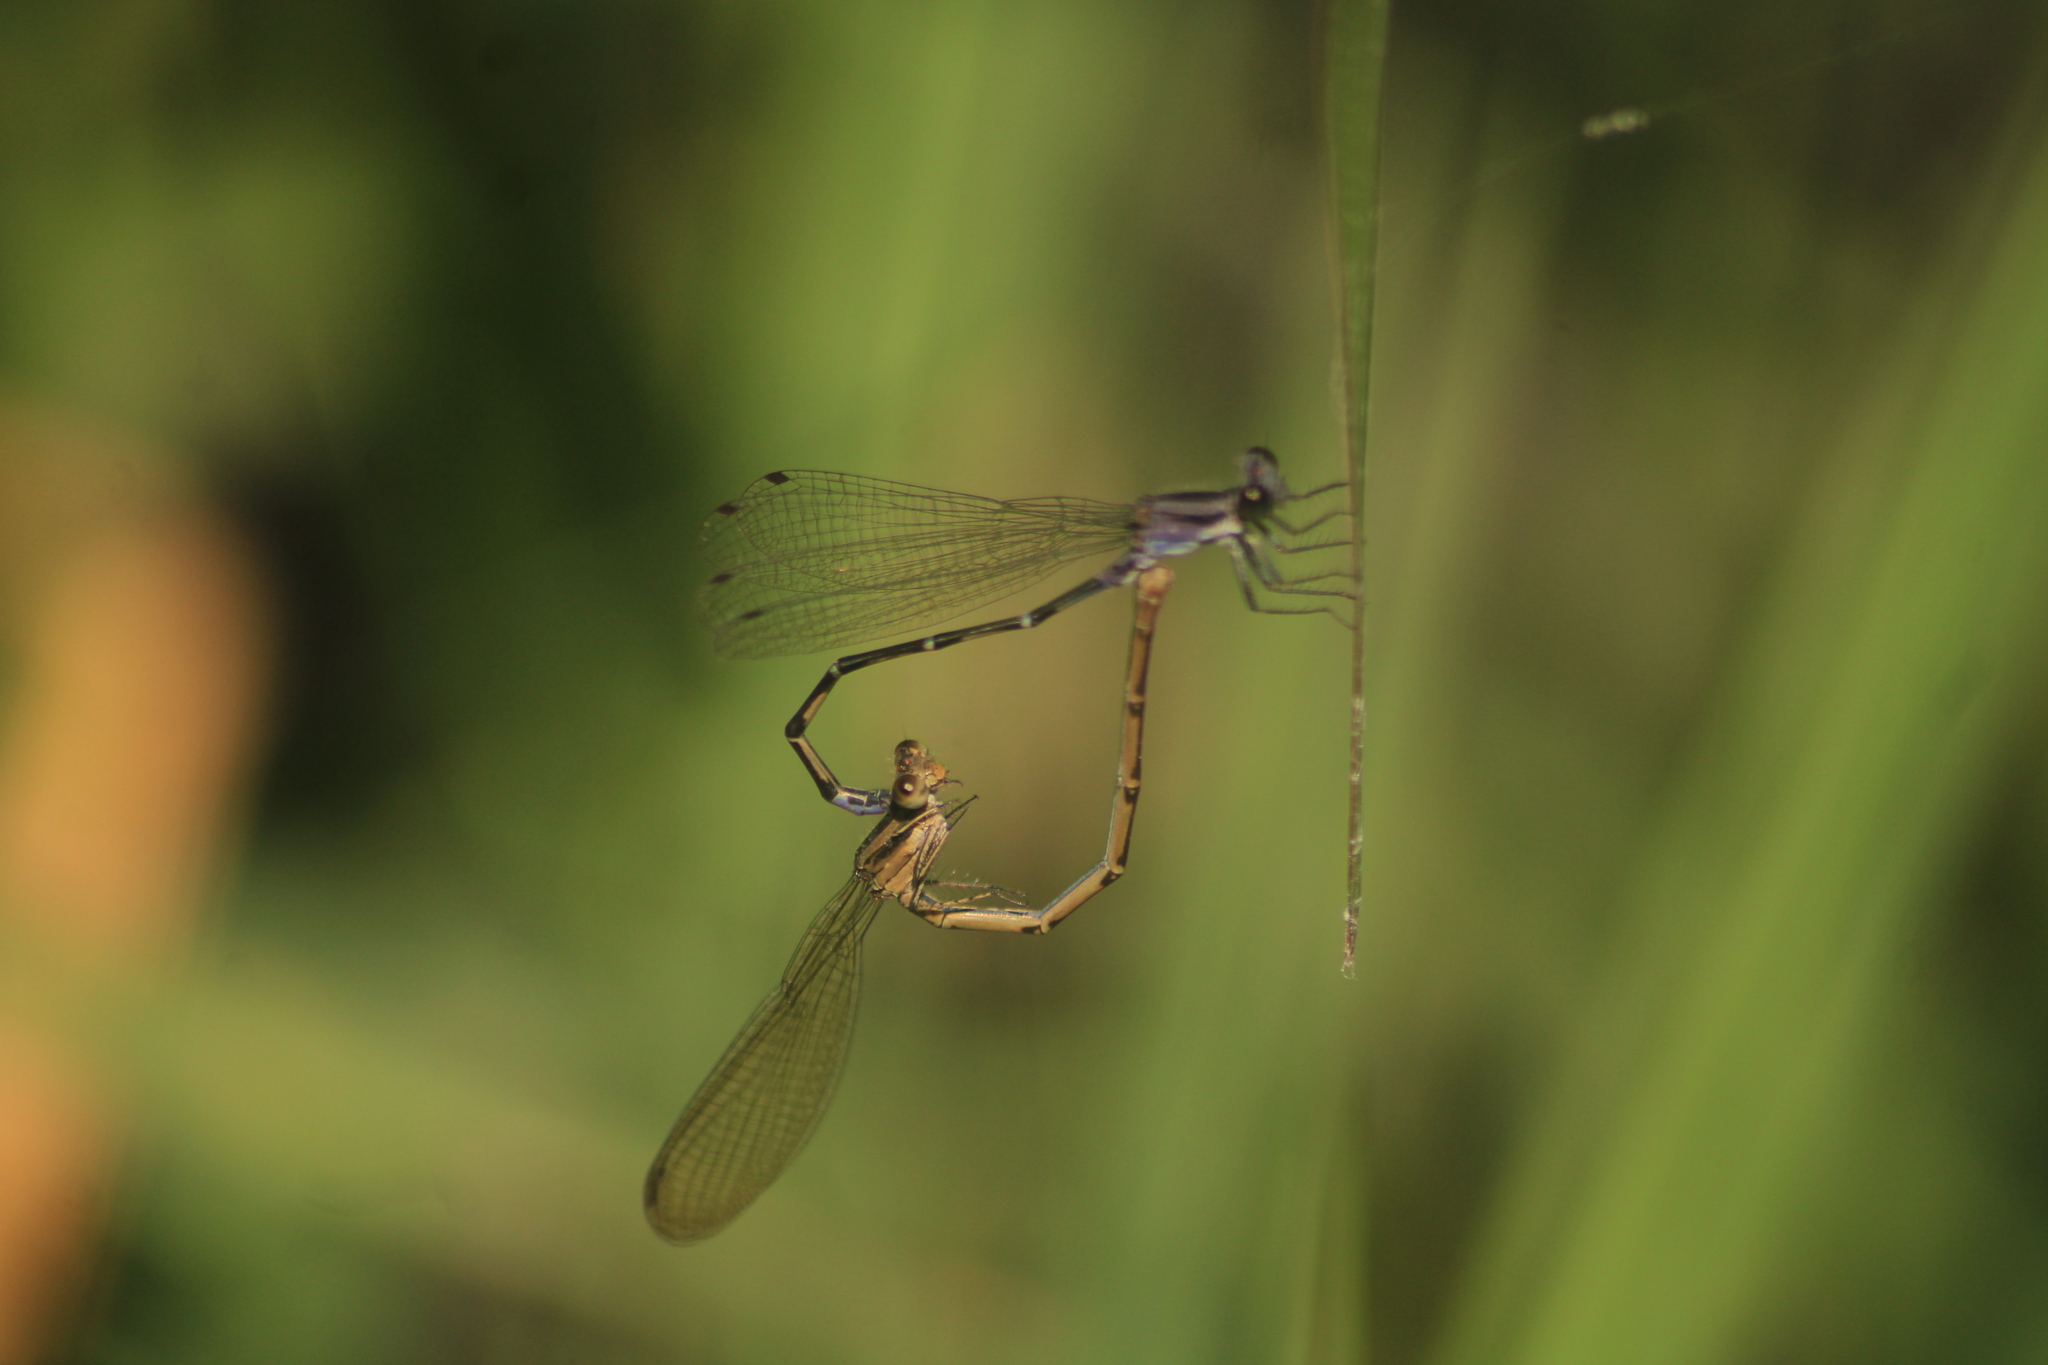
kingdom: Animalia
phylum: Arthropoda
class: Insecta
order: Odonata
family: Coenagrionidae
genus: Argia
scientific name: Argia pulla
